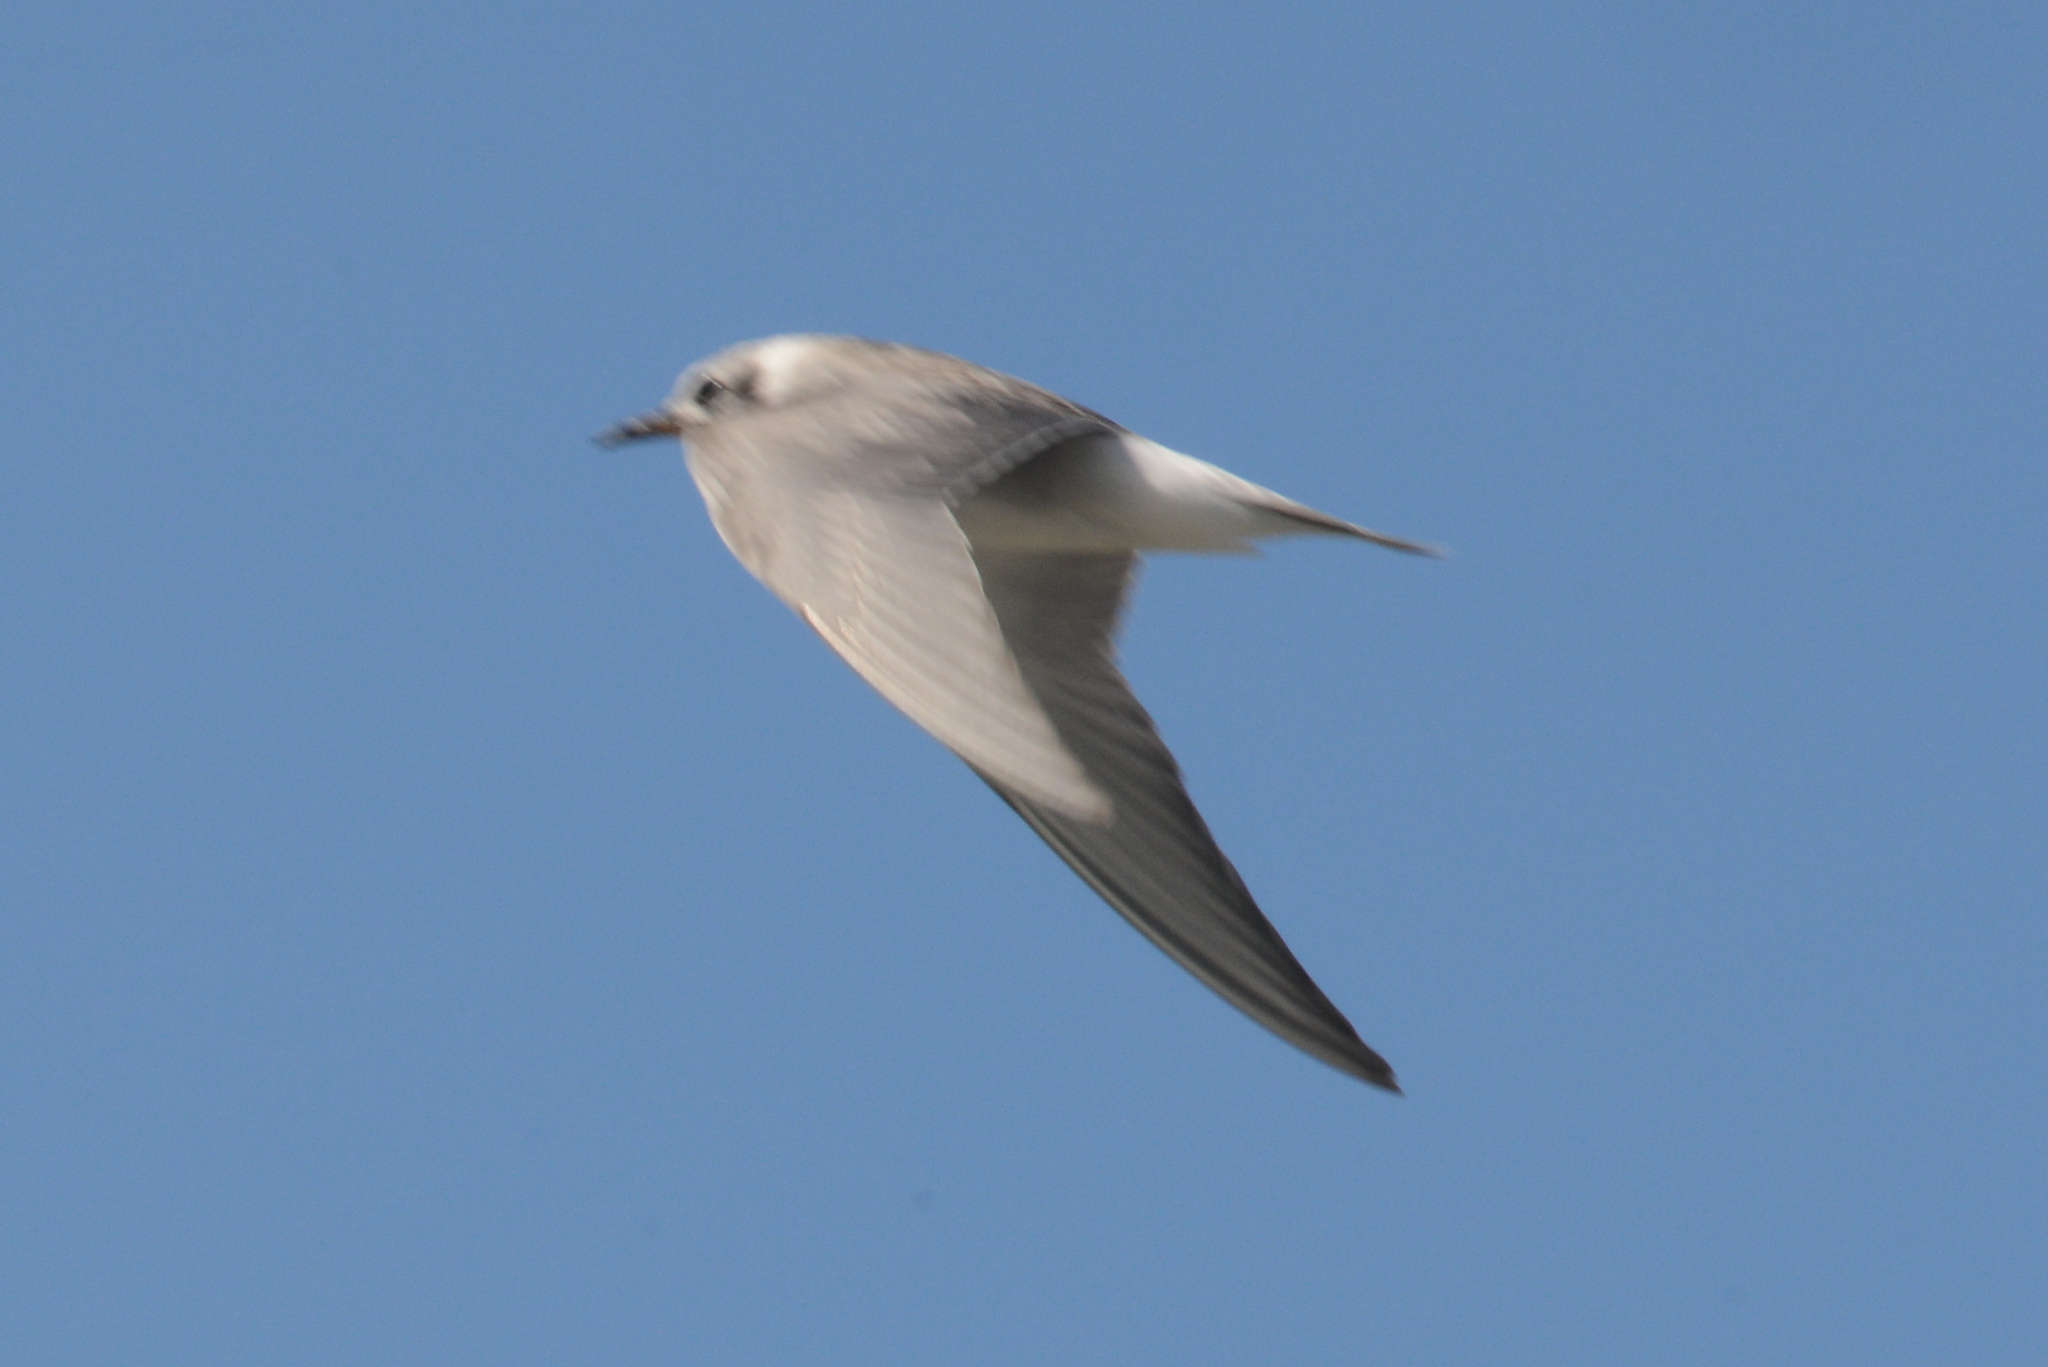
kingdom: Animalia
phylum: Chordata
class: Aves
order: Charadriiformes
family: Laridae
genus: Chlidonias
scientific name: Chlidonias albostriatus
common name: Black-fronted tern
